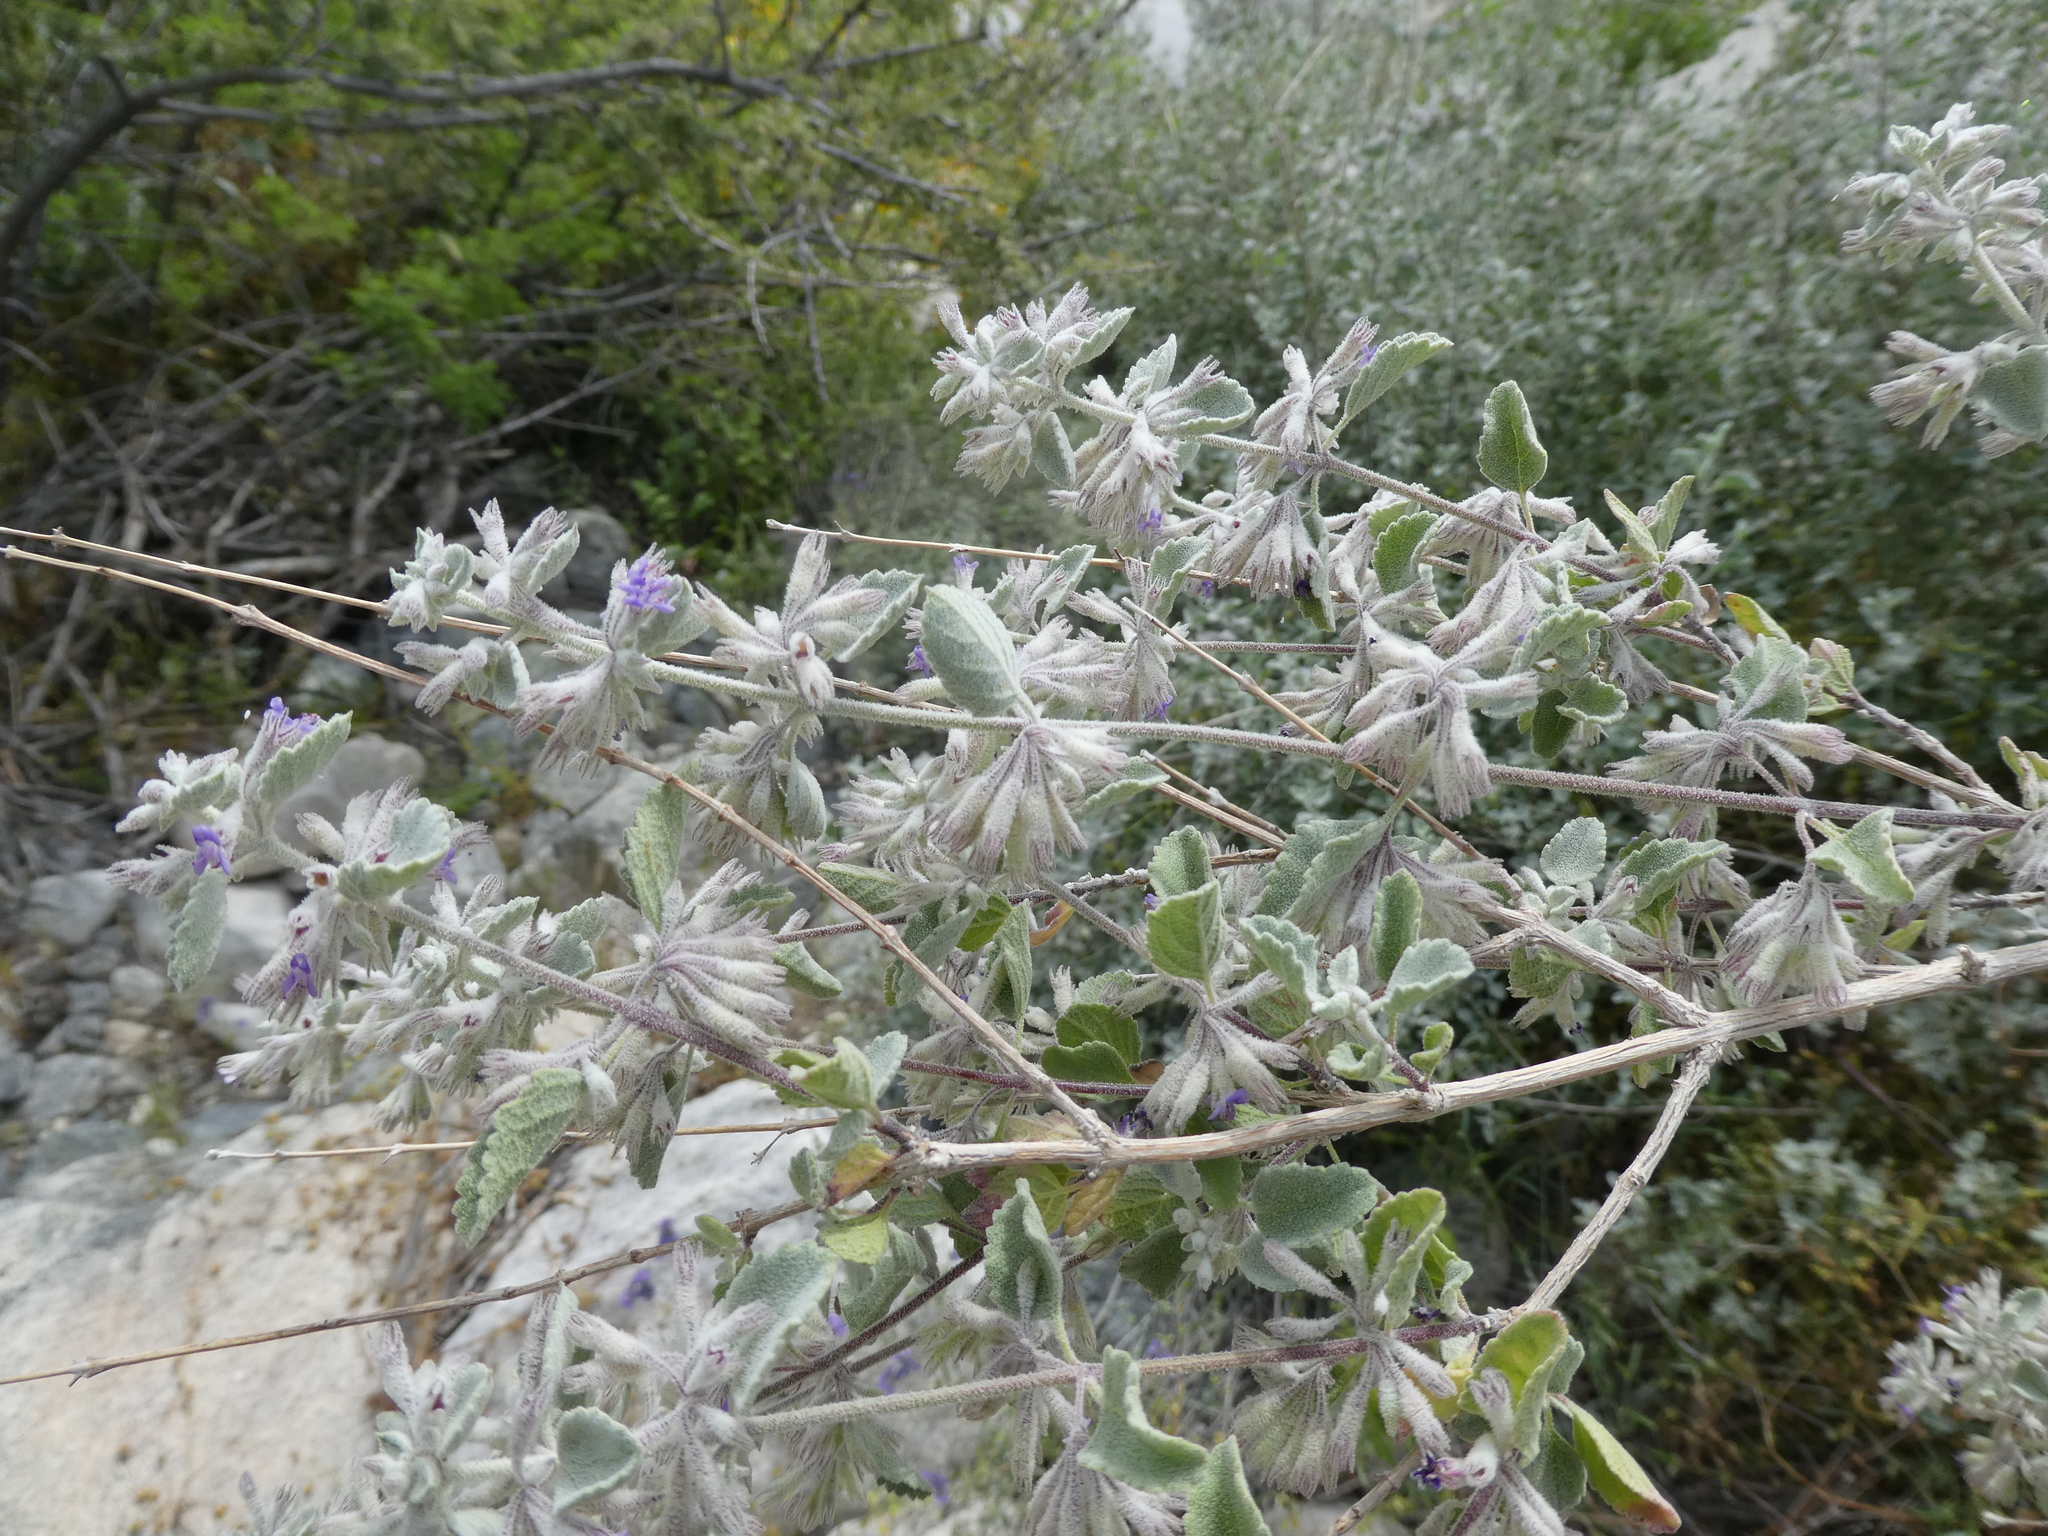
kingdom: Plantae
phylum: Tracheophyta
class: Magnoliopsida
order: Lamiales
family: Lamiaceae
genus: Condea
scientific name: Condea emoryi
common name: Chia
